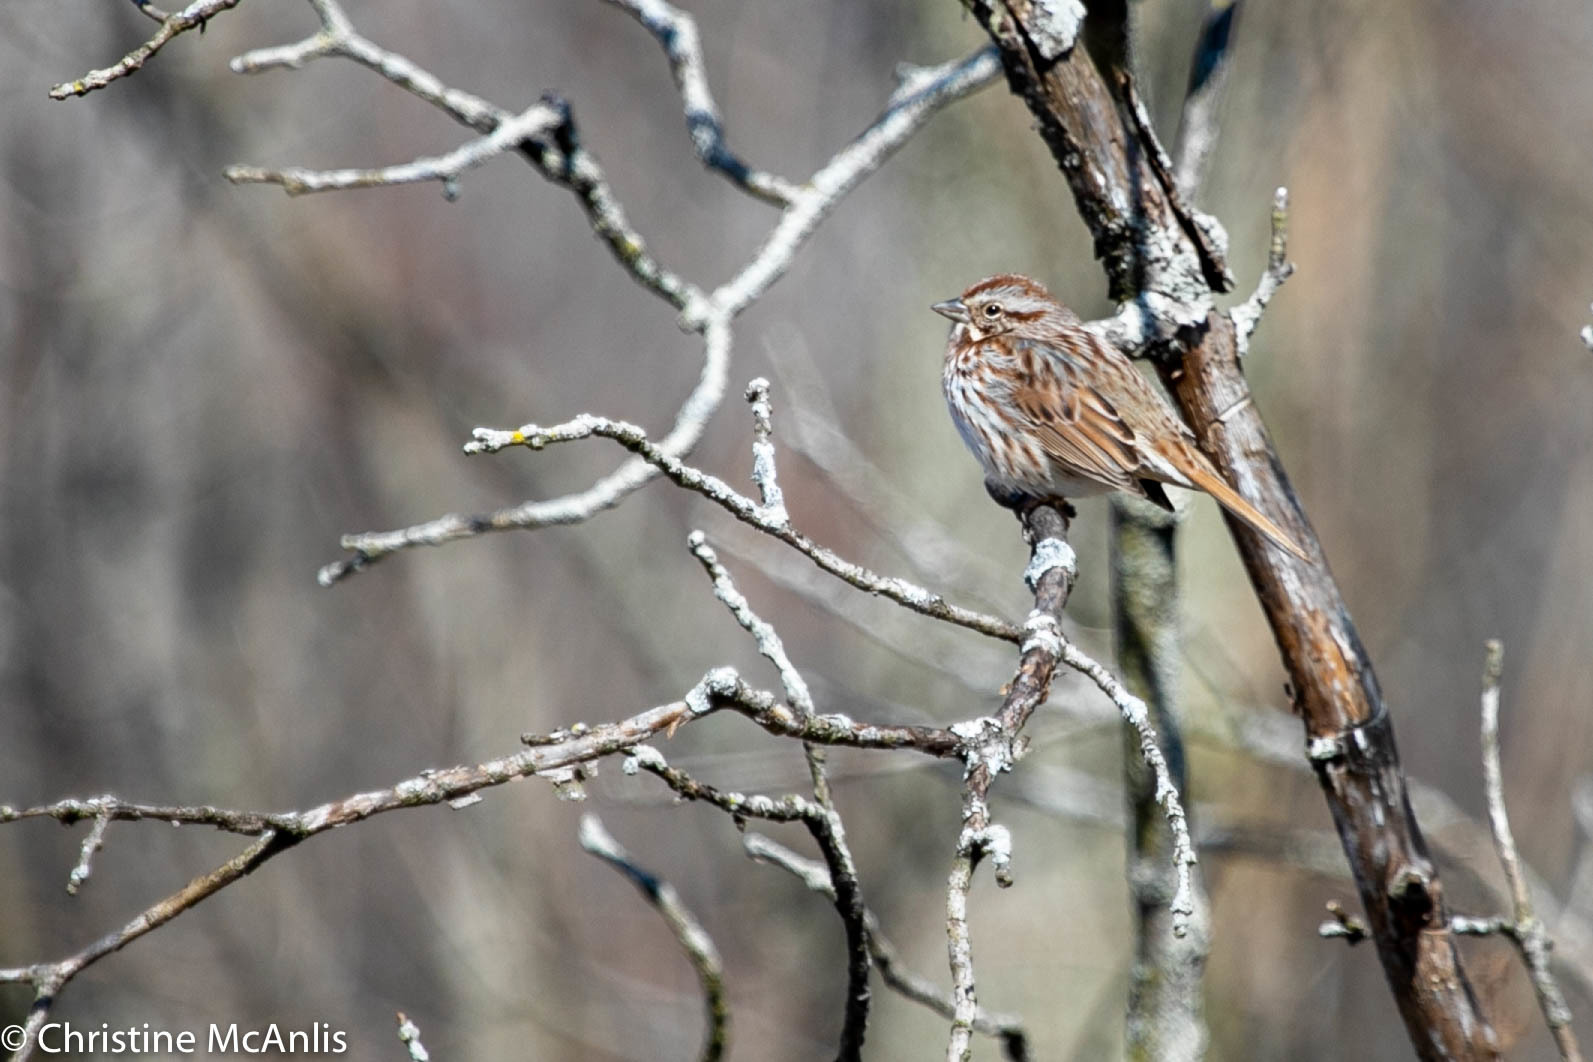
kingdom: Animalia
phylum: Chordata
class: Aves
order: Passeriformes
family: Passerellidae
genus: Melospiza
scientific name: Melospiza melodia
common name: Song sparrow
